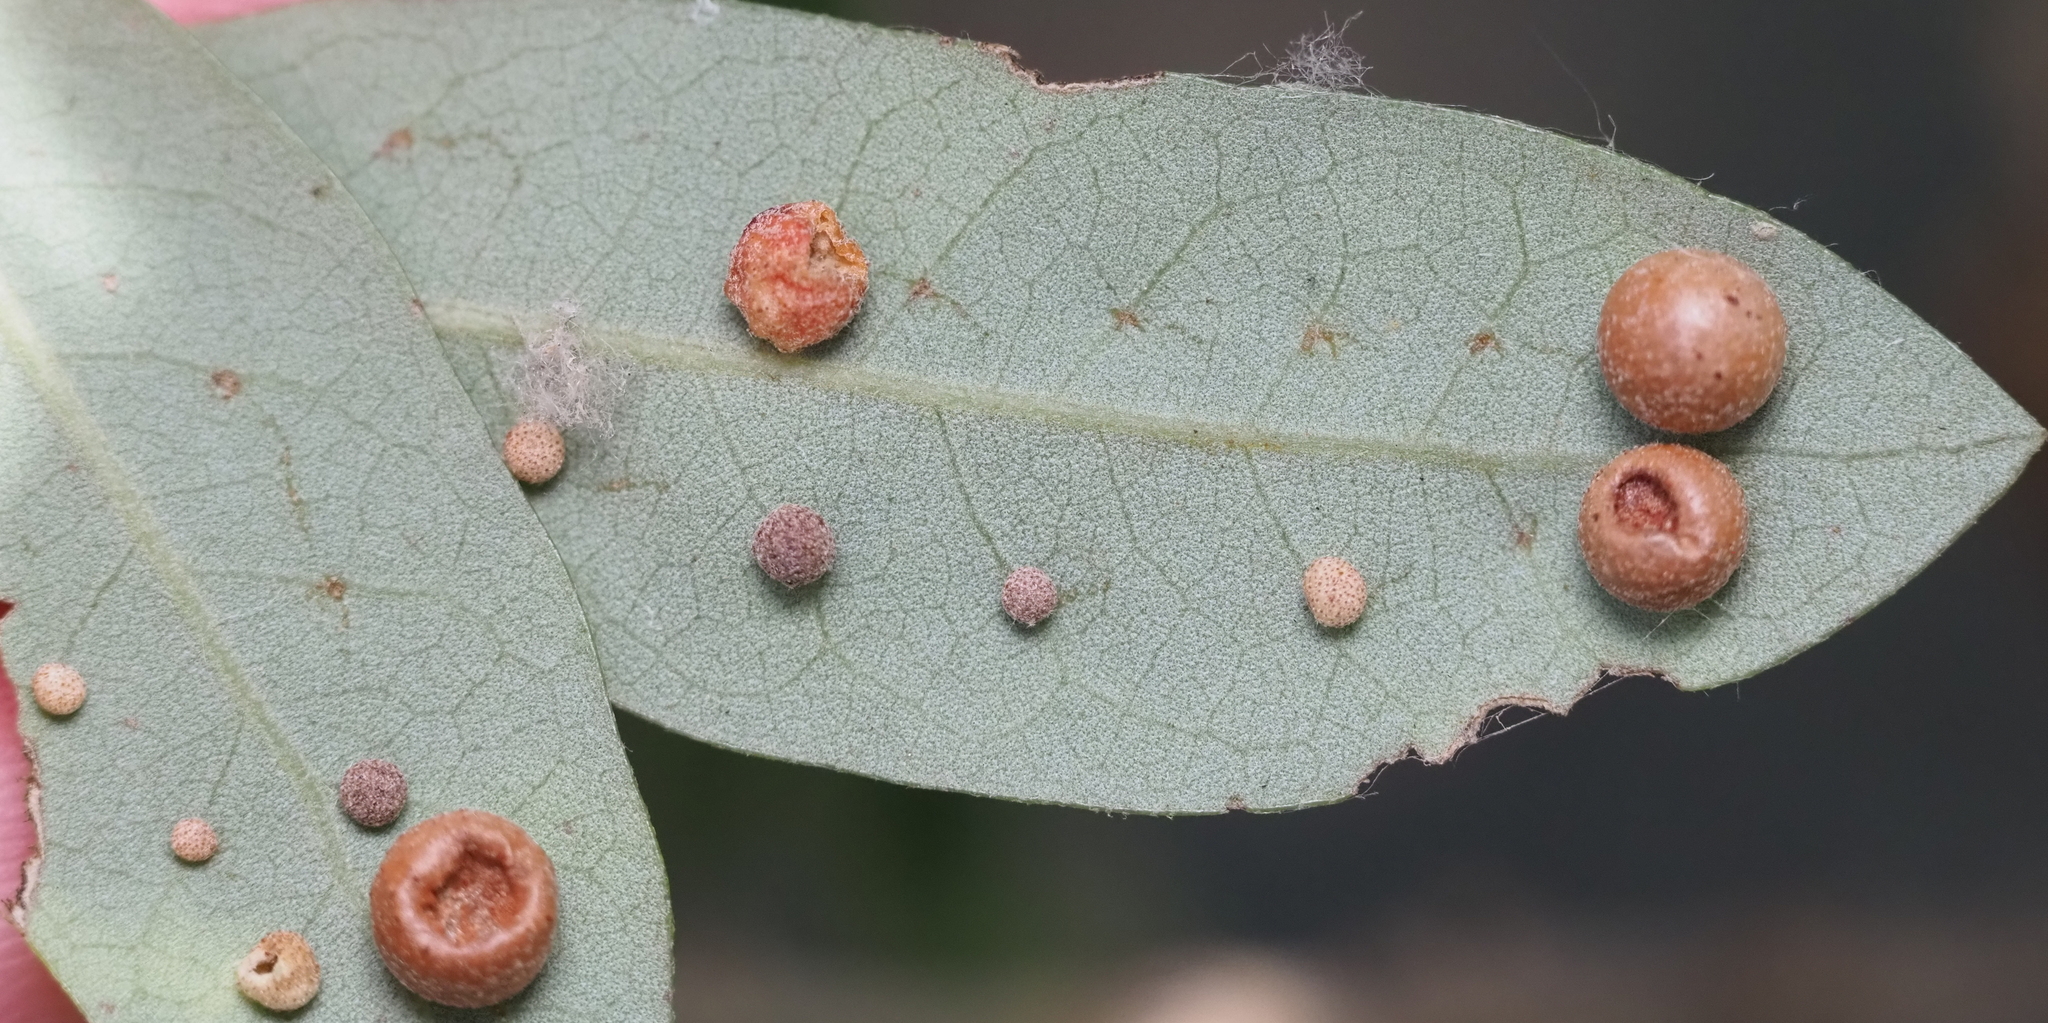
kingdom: Animalia
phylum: Arthropoda
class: Insecta
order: Hymenoptera
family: Cynipidae
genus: Belonocnema
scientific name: Belonocnema kinseyi
